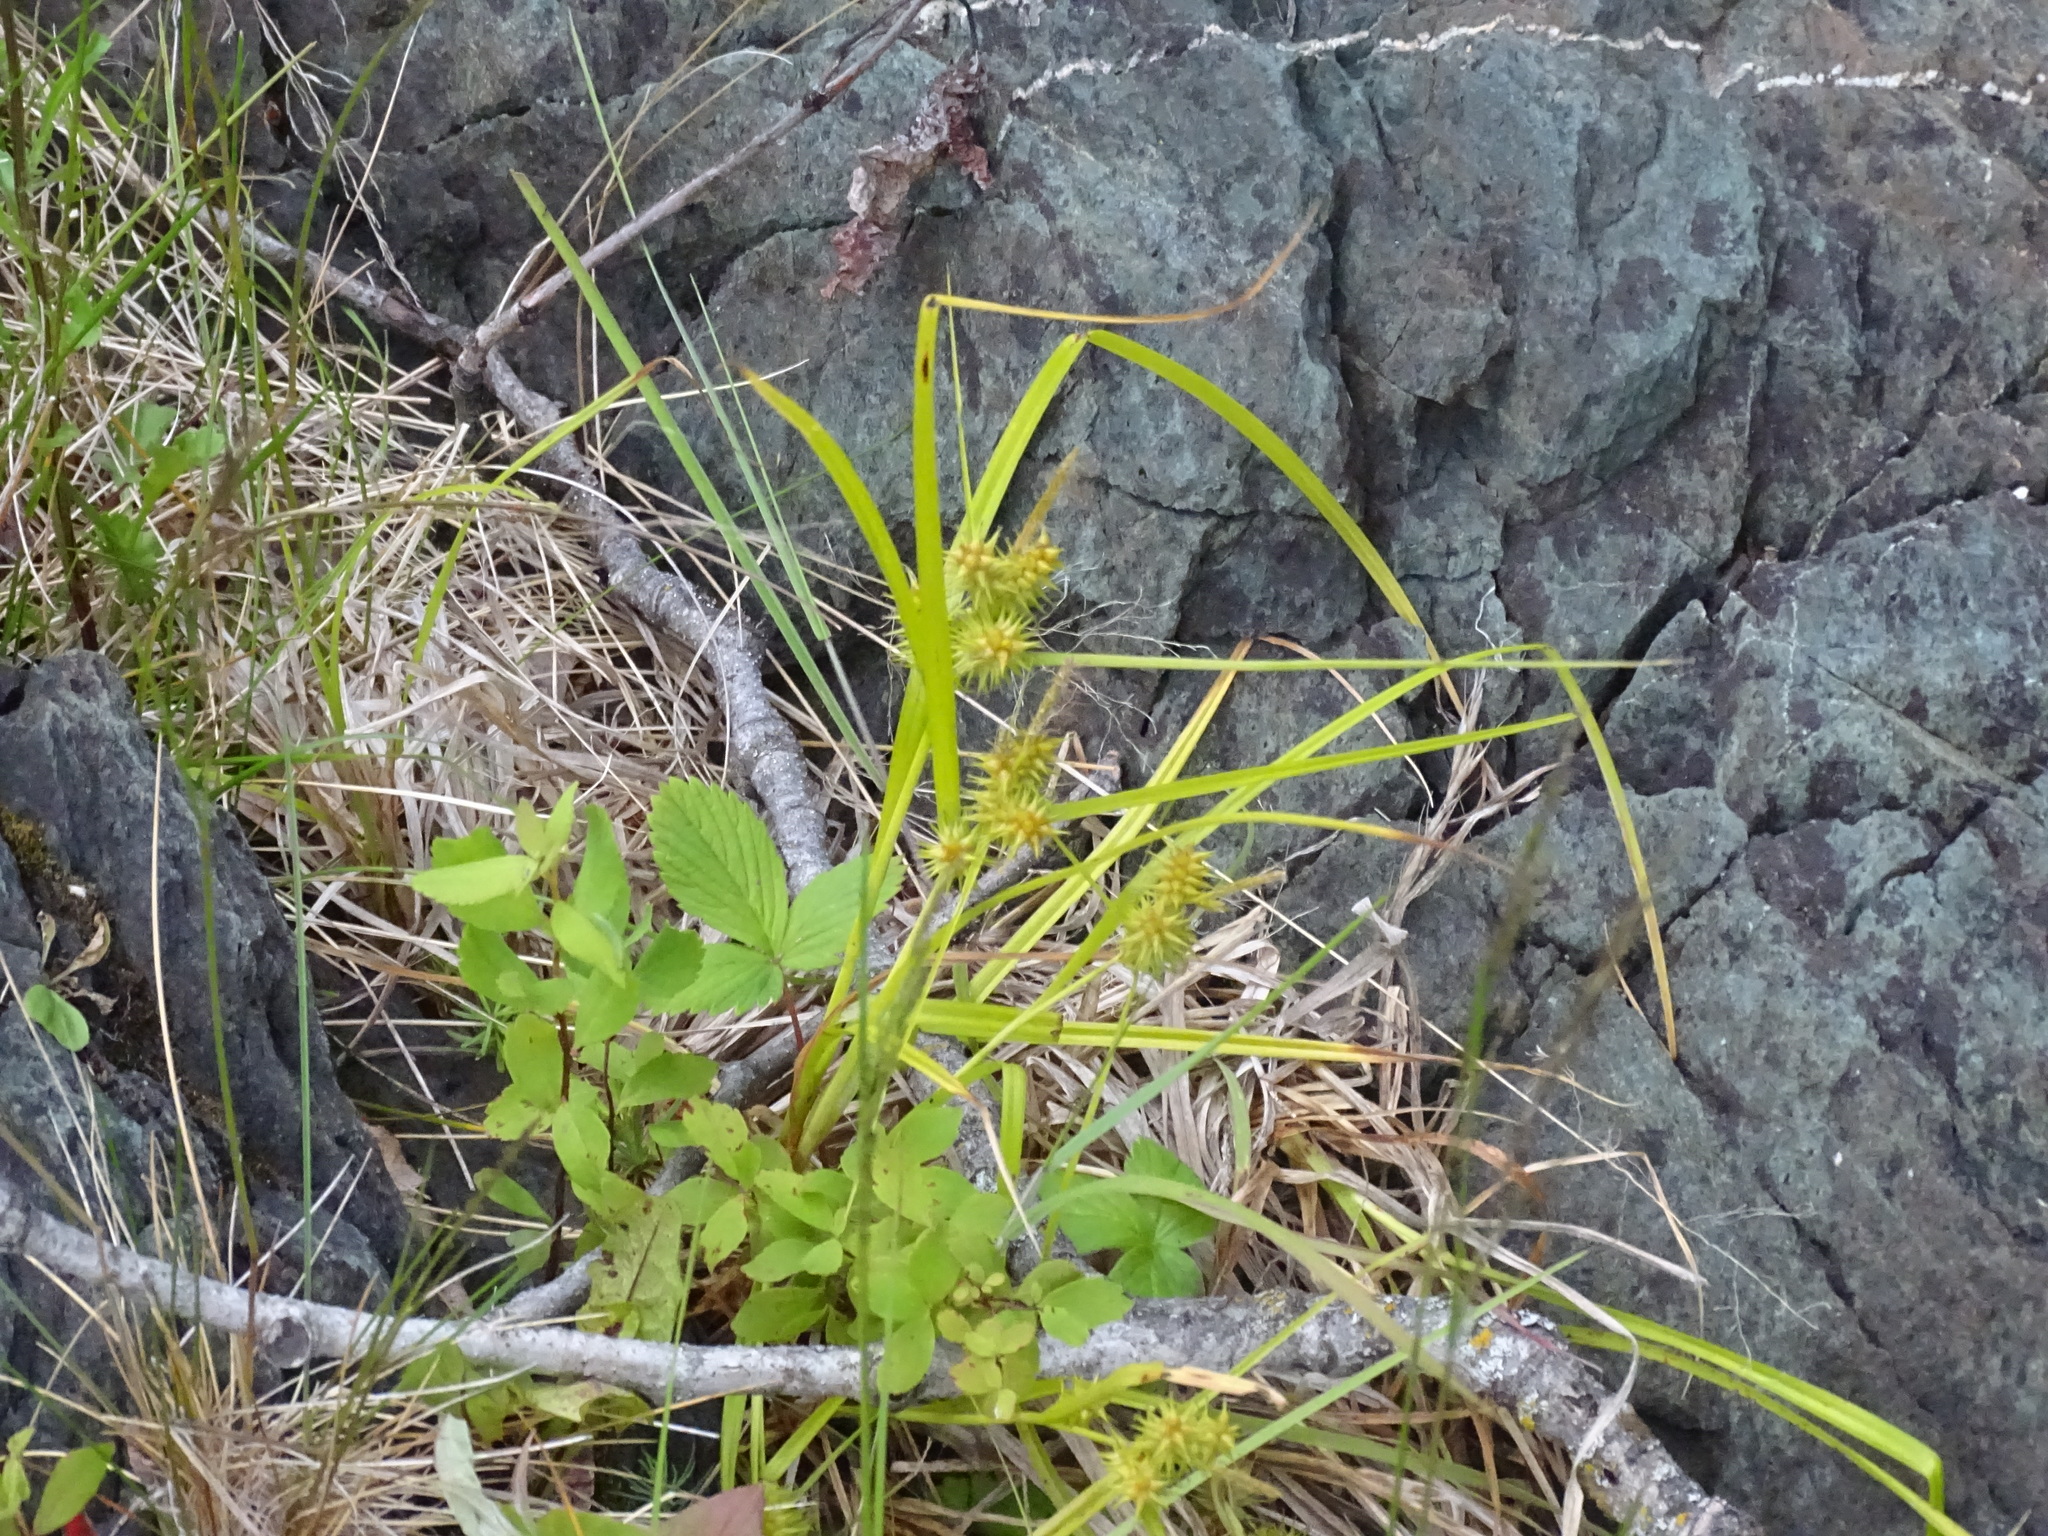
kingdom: Plantae
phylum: Tracheophyta
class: Liliopsida
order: Poales
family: Cyperaceae
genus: Carex
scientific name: Carex flava
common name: Large yellow-sedge
